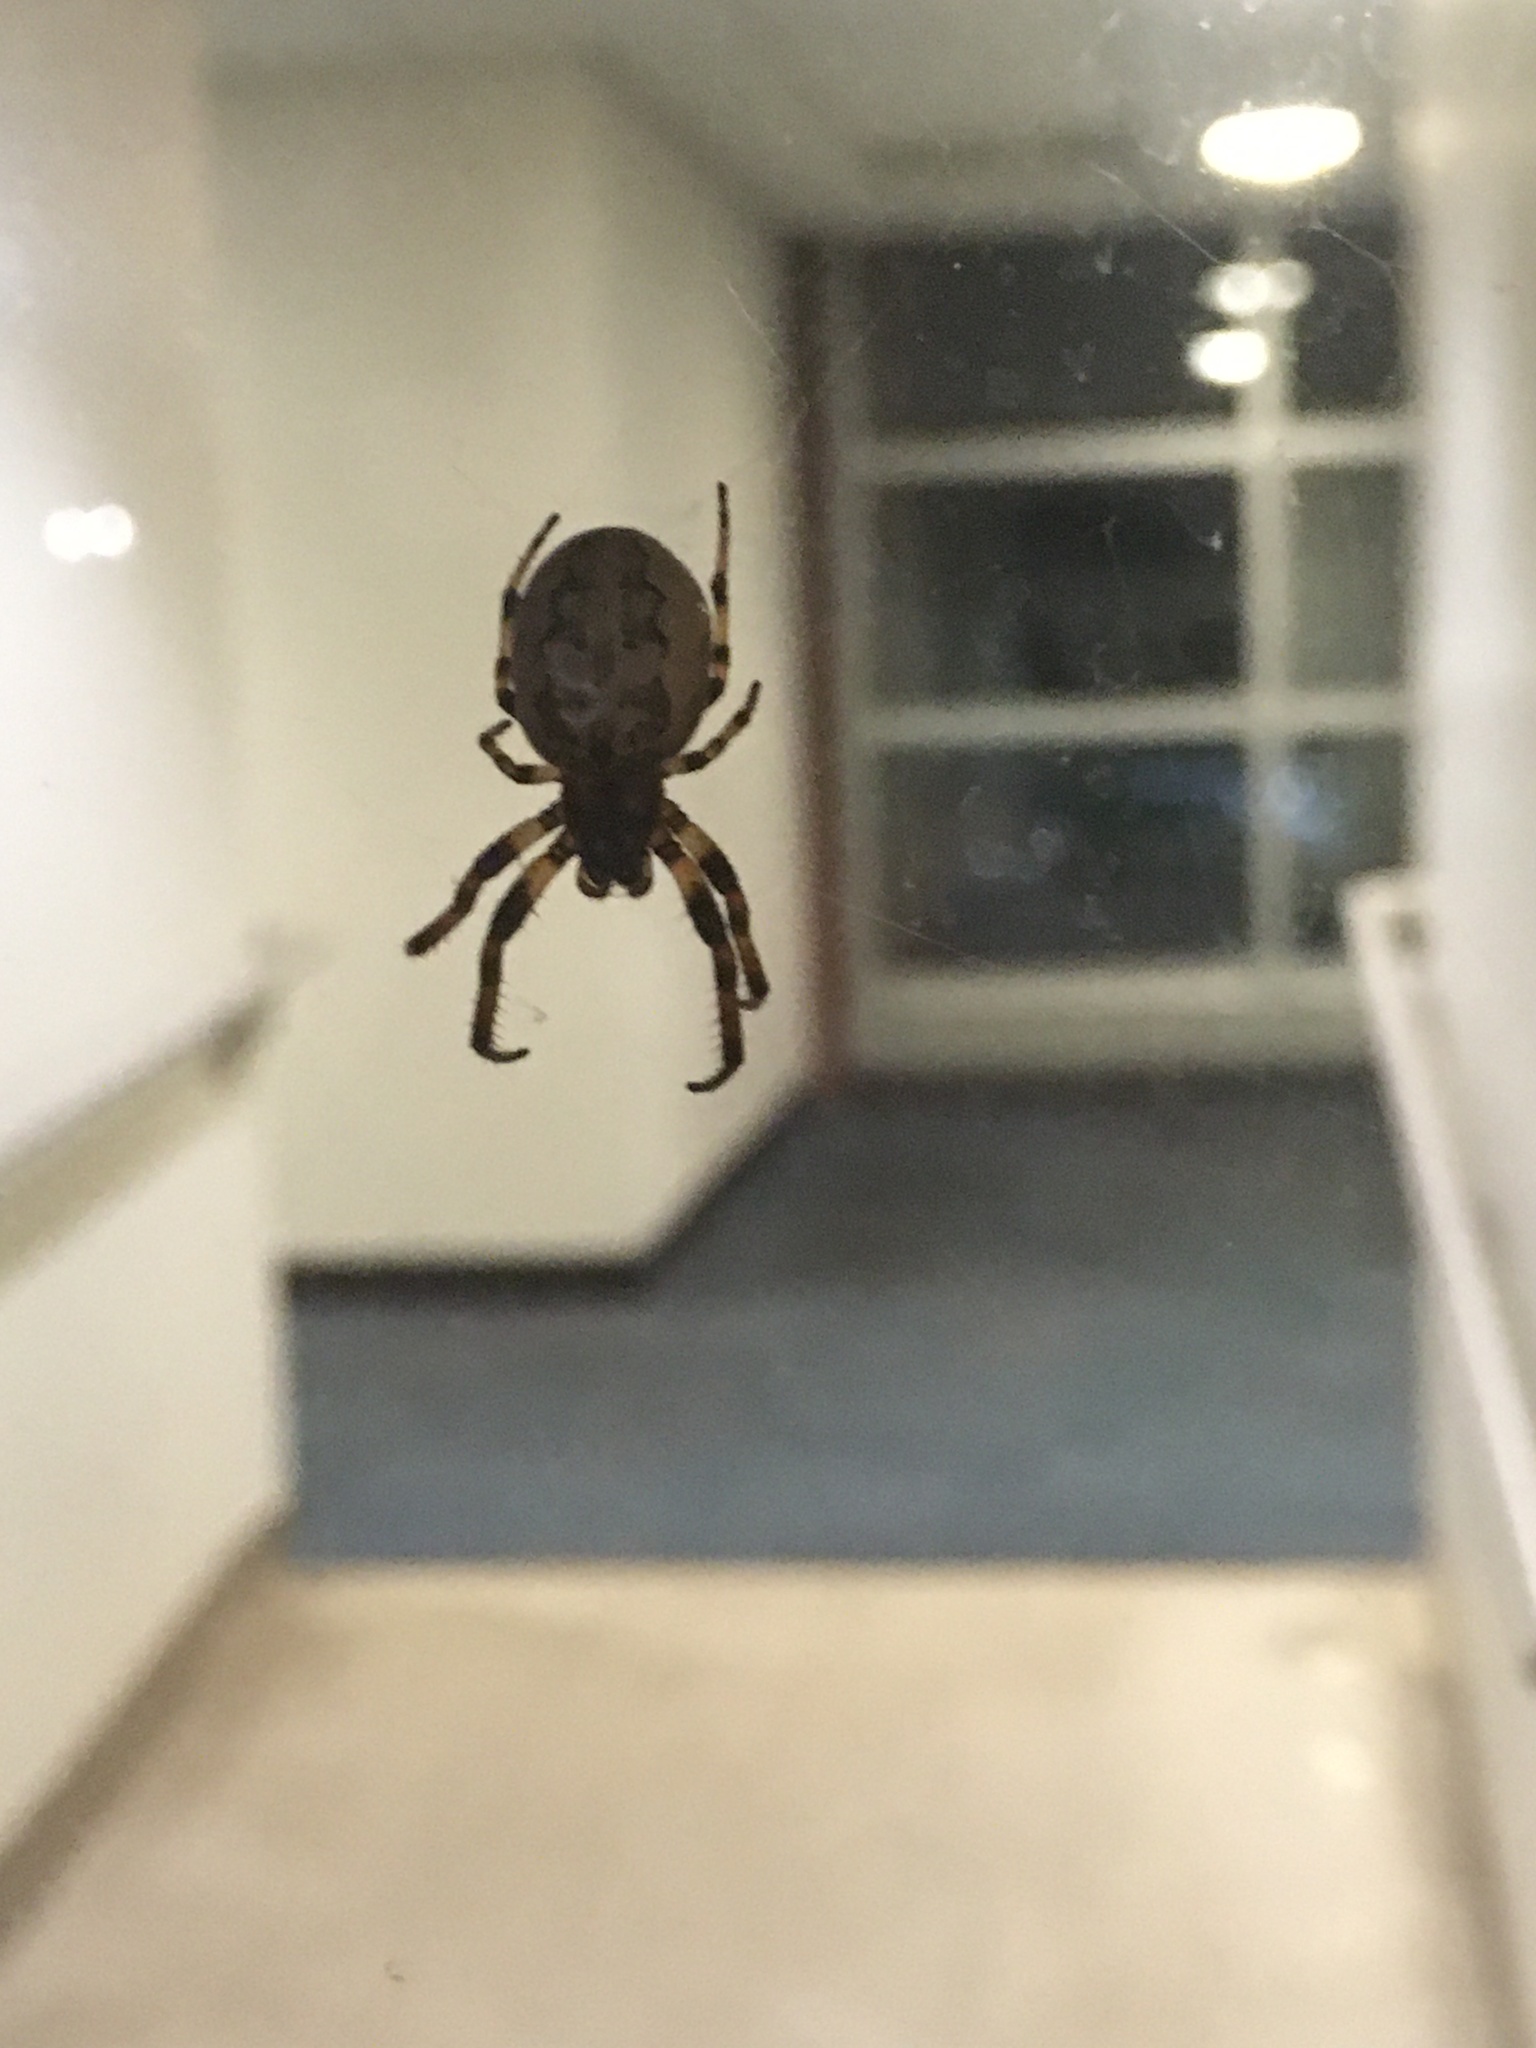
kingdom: Animalia
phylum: Arthropoda
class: Arachnida
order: Araneae
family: Araneidae
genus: Larinioides
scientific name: Larinioides cornutus
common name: Furrow orbweaver
